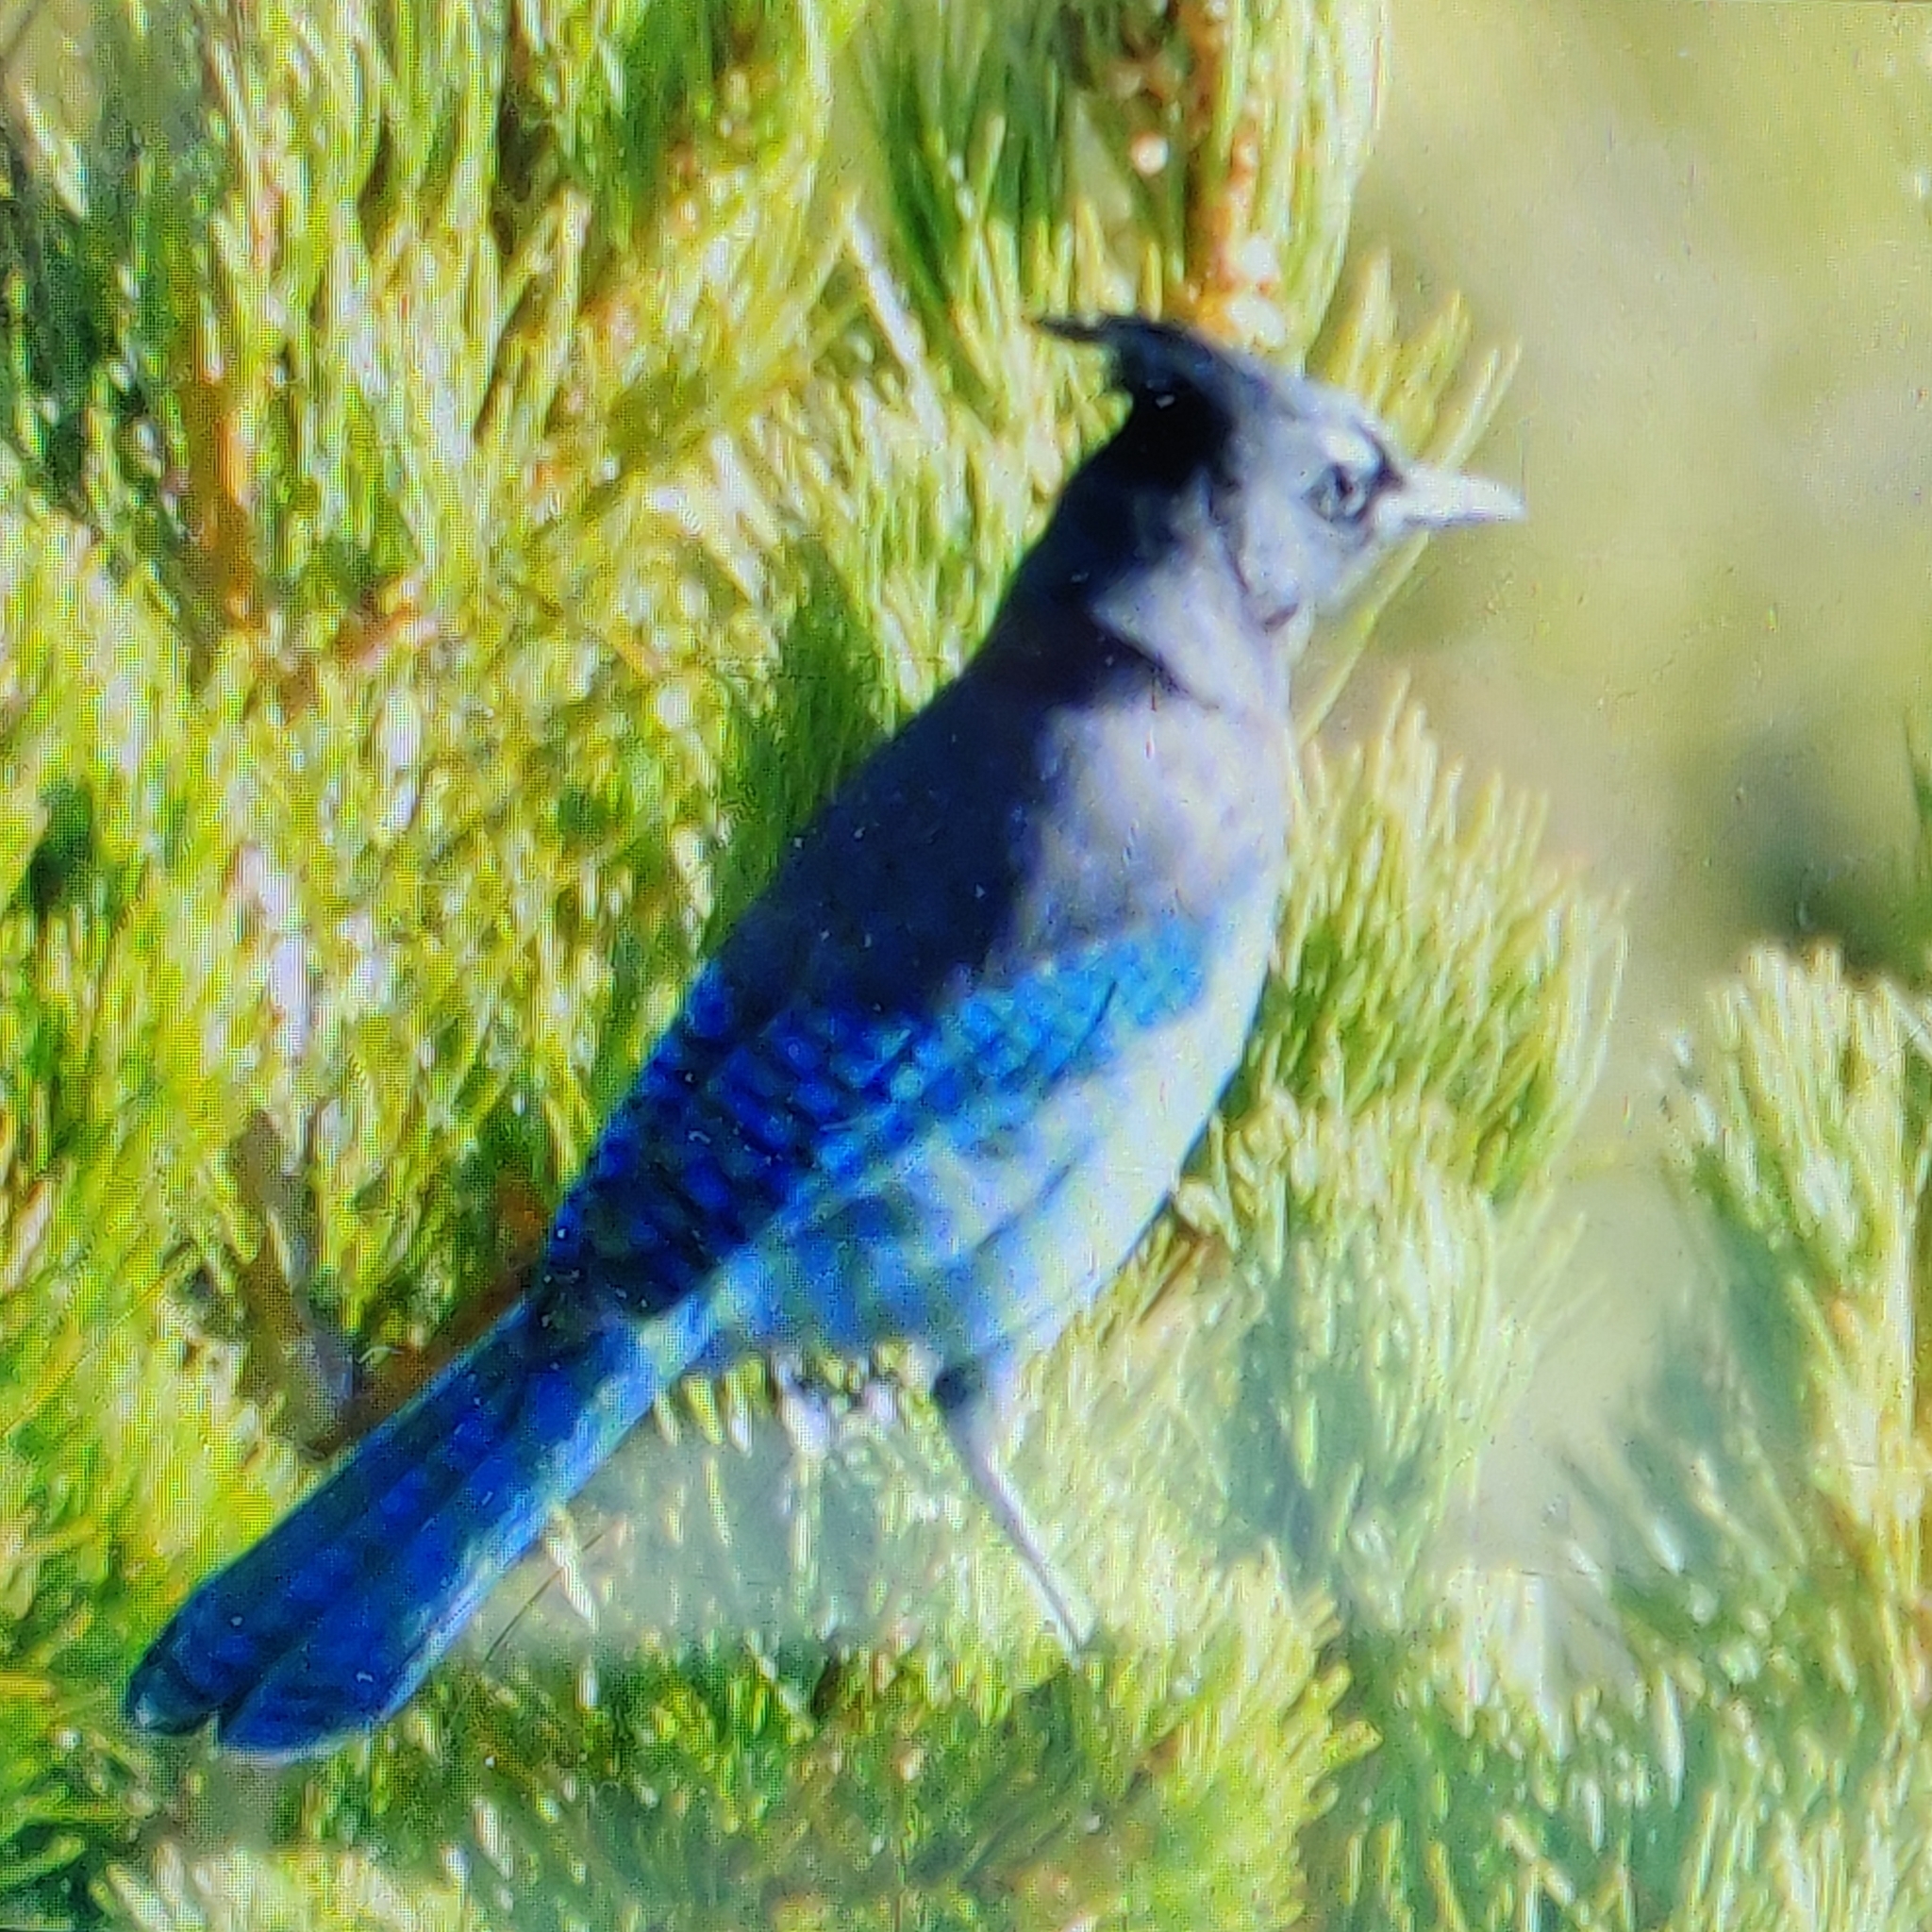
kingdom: Animalia
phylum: Chordata
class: Aves
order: Passeriformes
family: Corvidae
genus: Cyanocitta
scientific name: Cyanocitta stelleri
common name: Steller's jay
